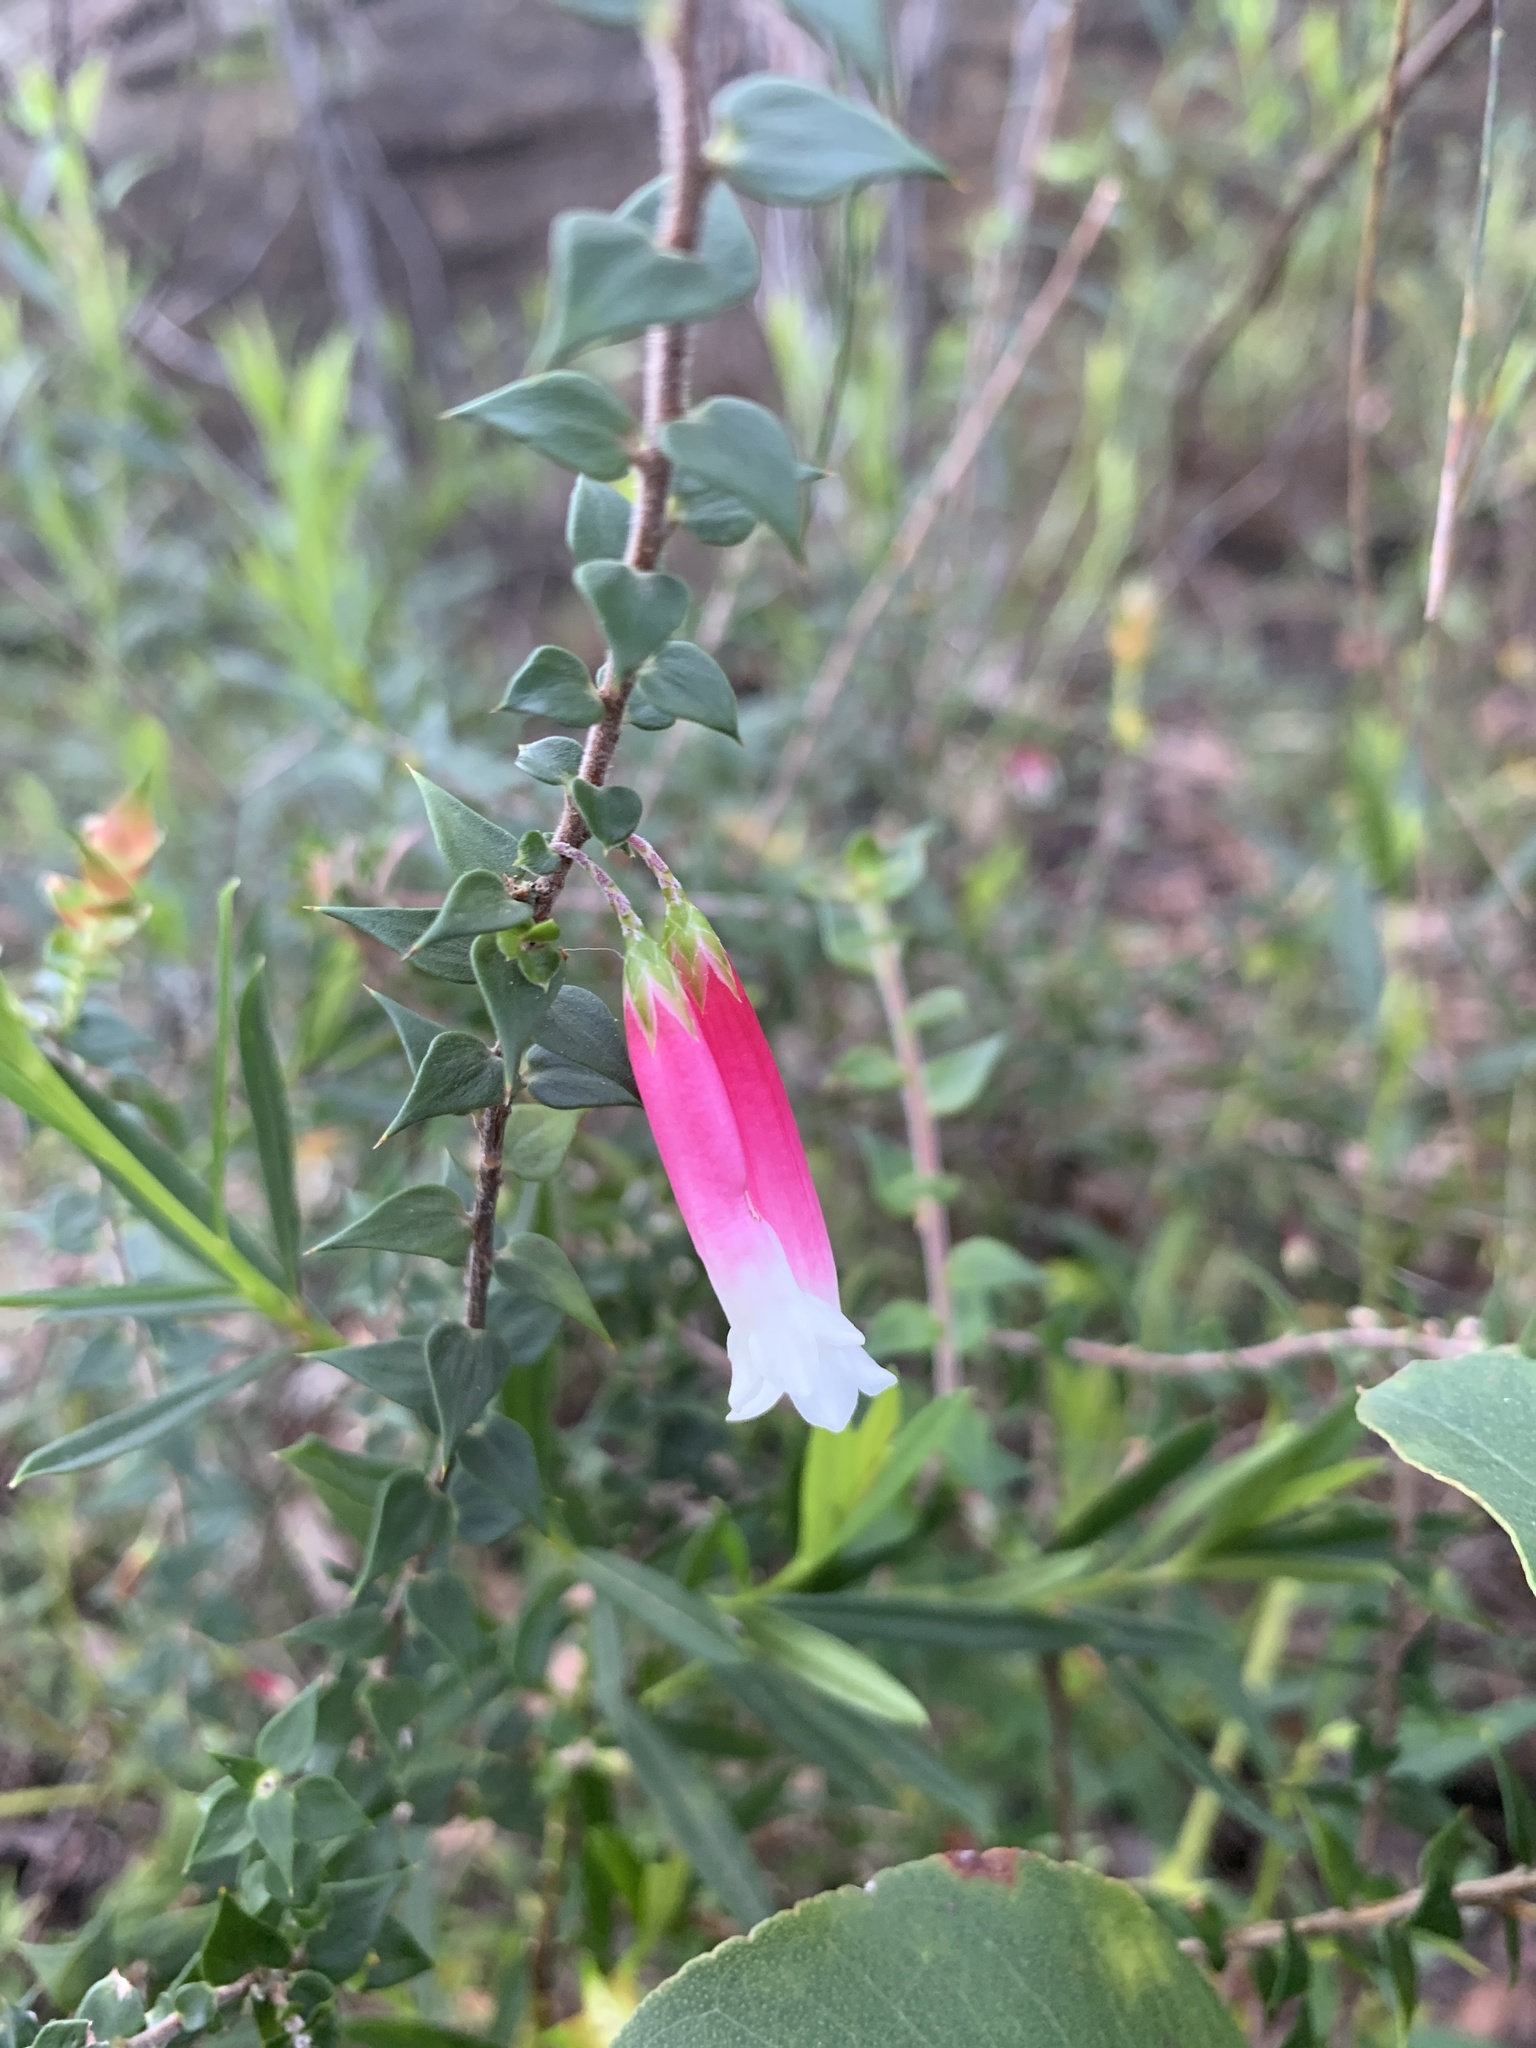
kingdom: Plantae
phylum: Tracheophyta
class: Magnoliopsida
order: Ericales
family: Ericaceae
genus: Epacris
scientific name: Epacris longiflora
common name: Fuchsia-heath
